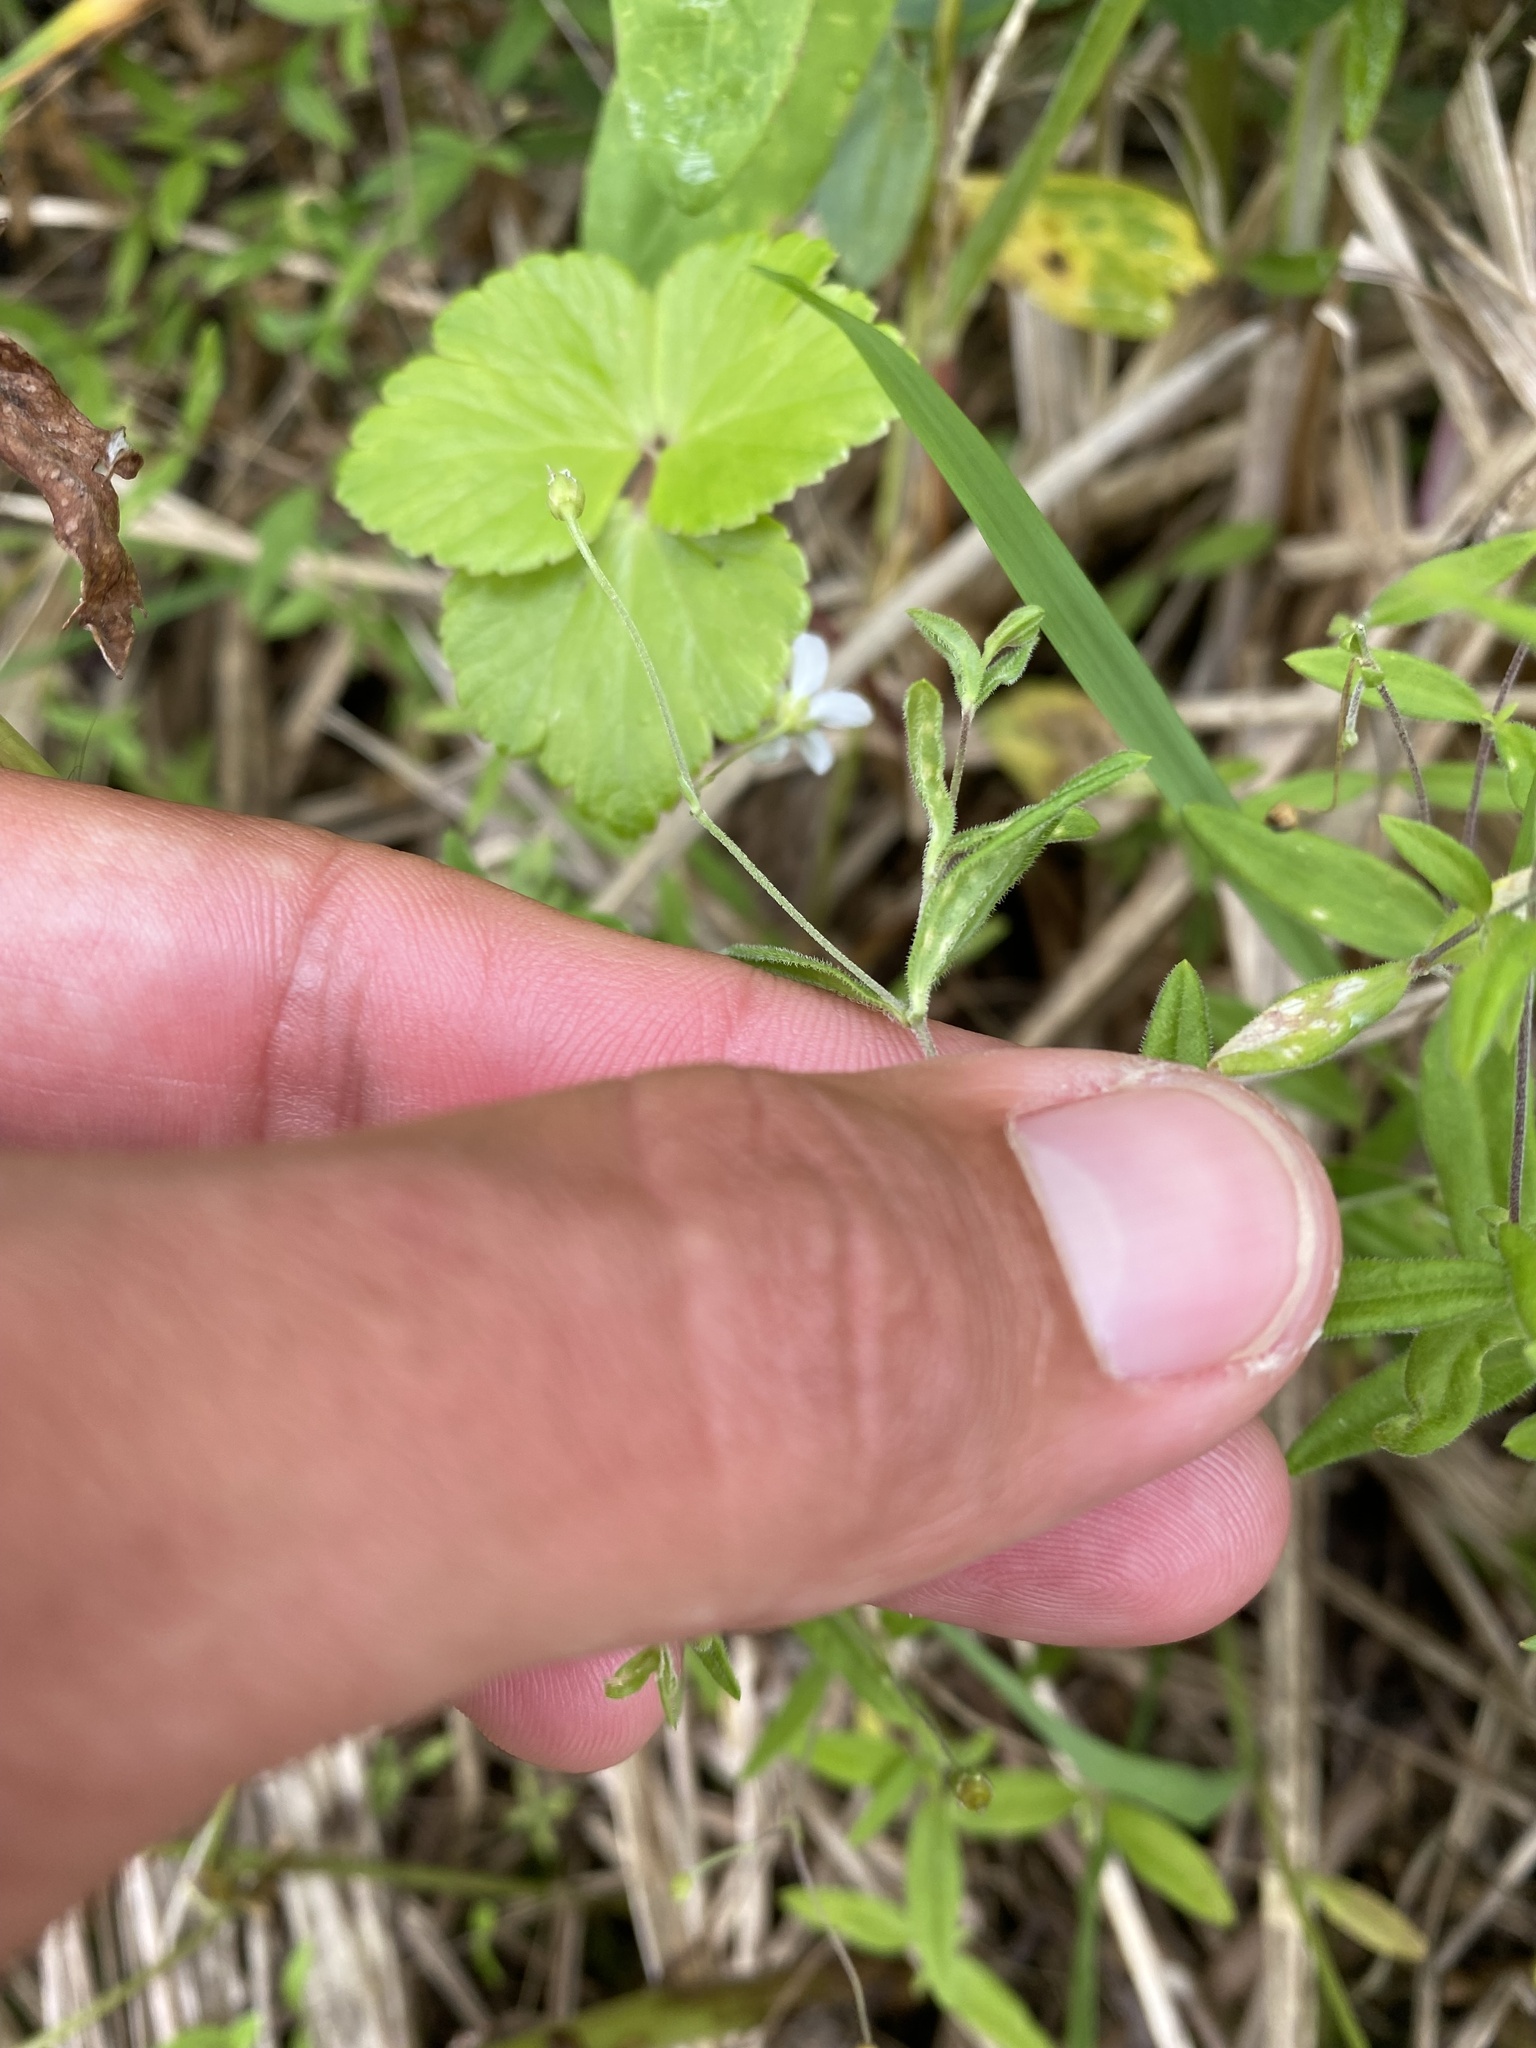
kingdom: Plantae
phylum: Tracheophyta
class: Magnoliopsida
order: Caryophyllales
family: Caryophyllaceae
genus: Moehringia
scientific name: Moehringia lateriflora
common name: Blunt-leaved sandwort
